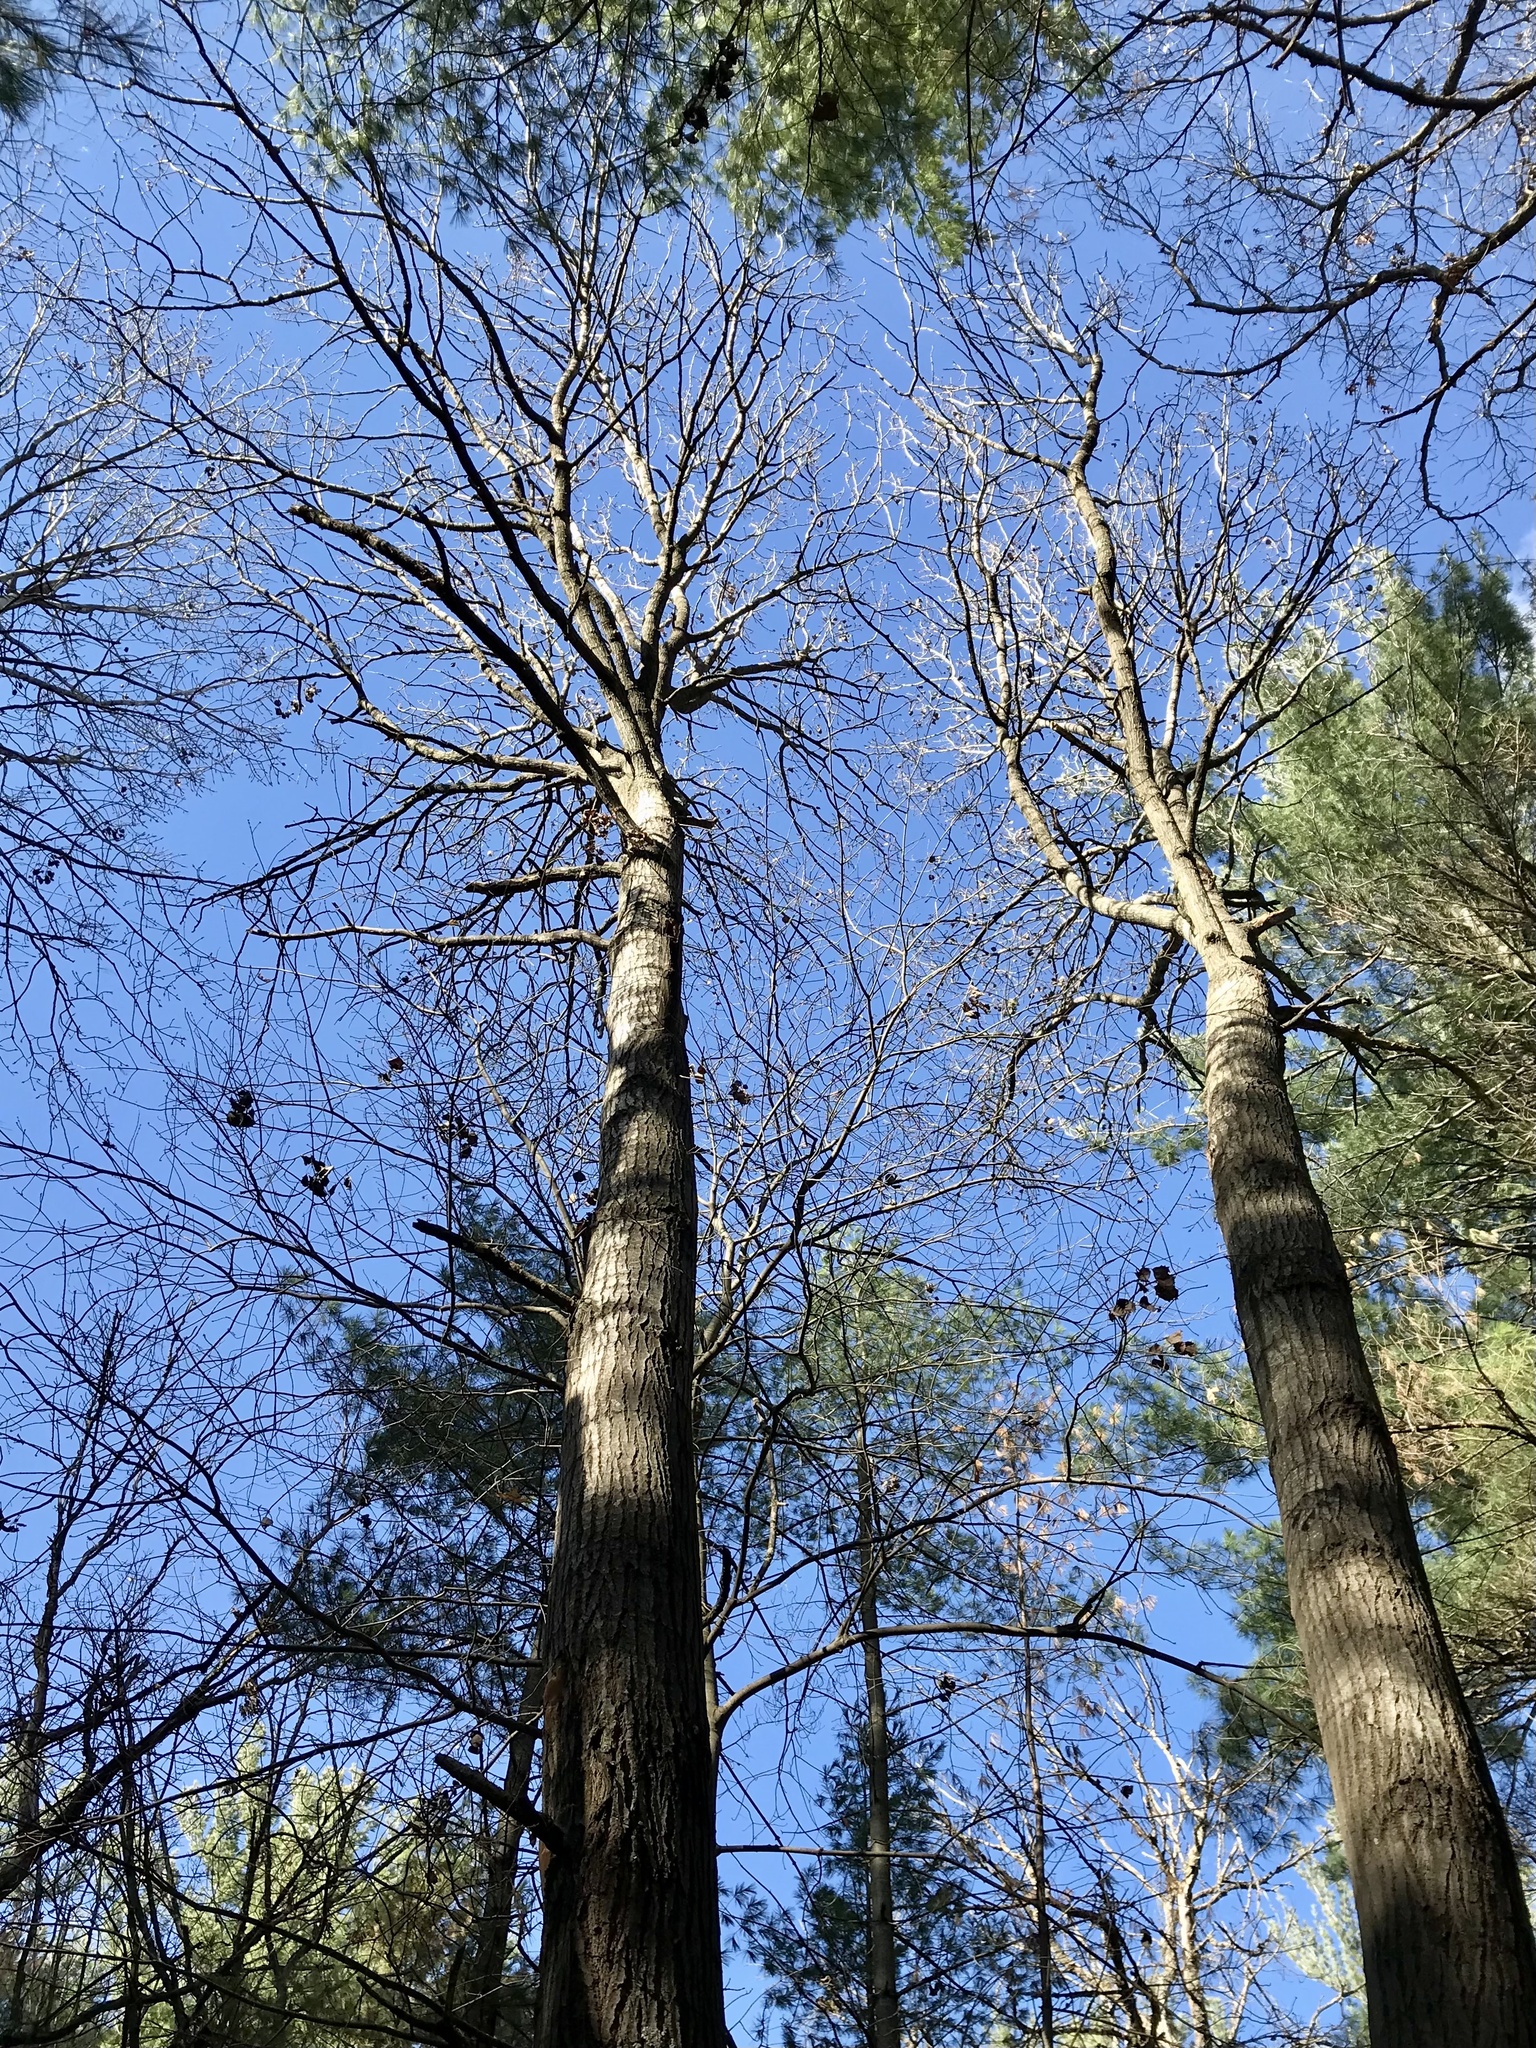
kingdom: Plantae
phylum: Tracheophyta
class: Magnoliopsida
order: Malpighiales
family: Salicaceae
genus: Populus
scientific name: Populus grandidentata
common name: Bigtooth aspen
